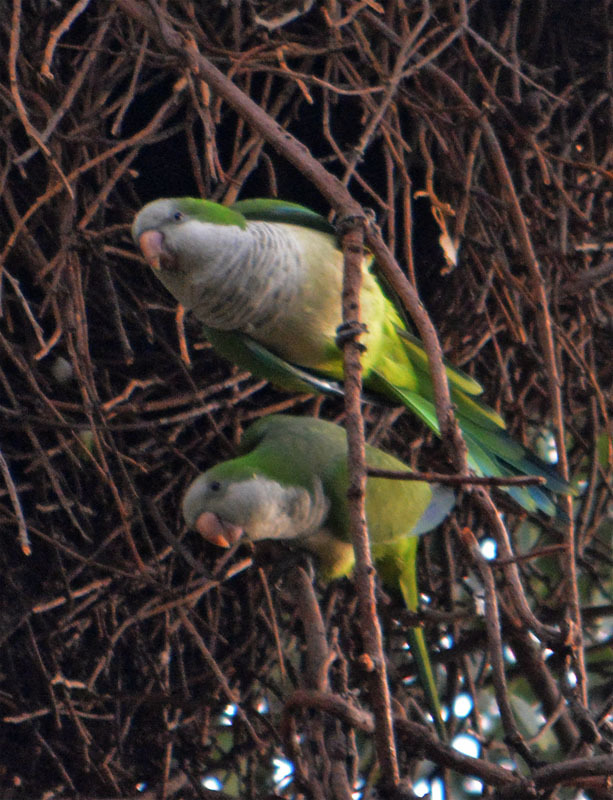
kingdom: Animalia
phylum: Chordata
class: Aves
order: Psittaciformes
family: Psittacidae
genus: Myiopsitta
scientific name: Myiopsitta monachus
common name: Monk parakeet
